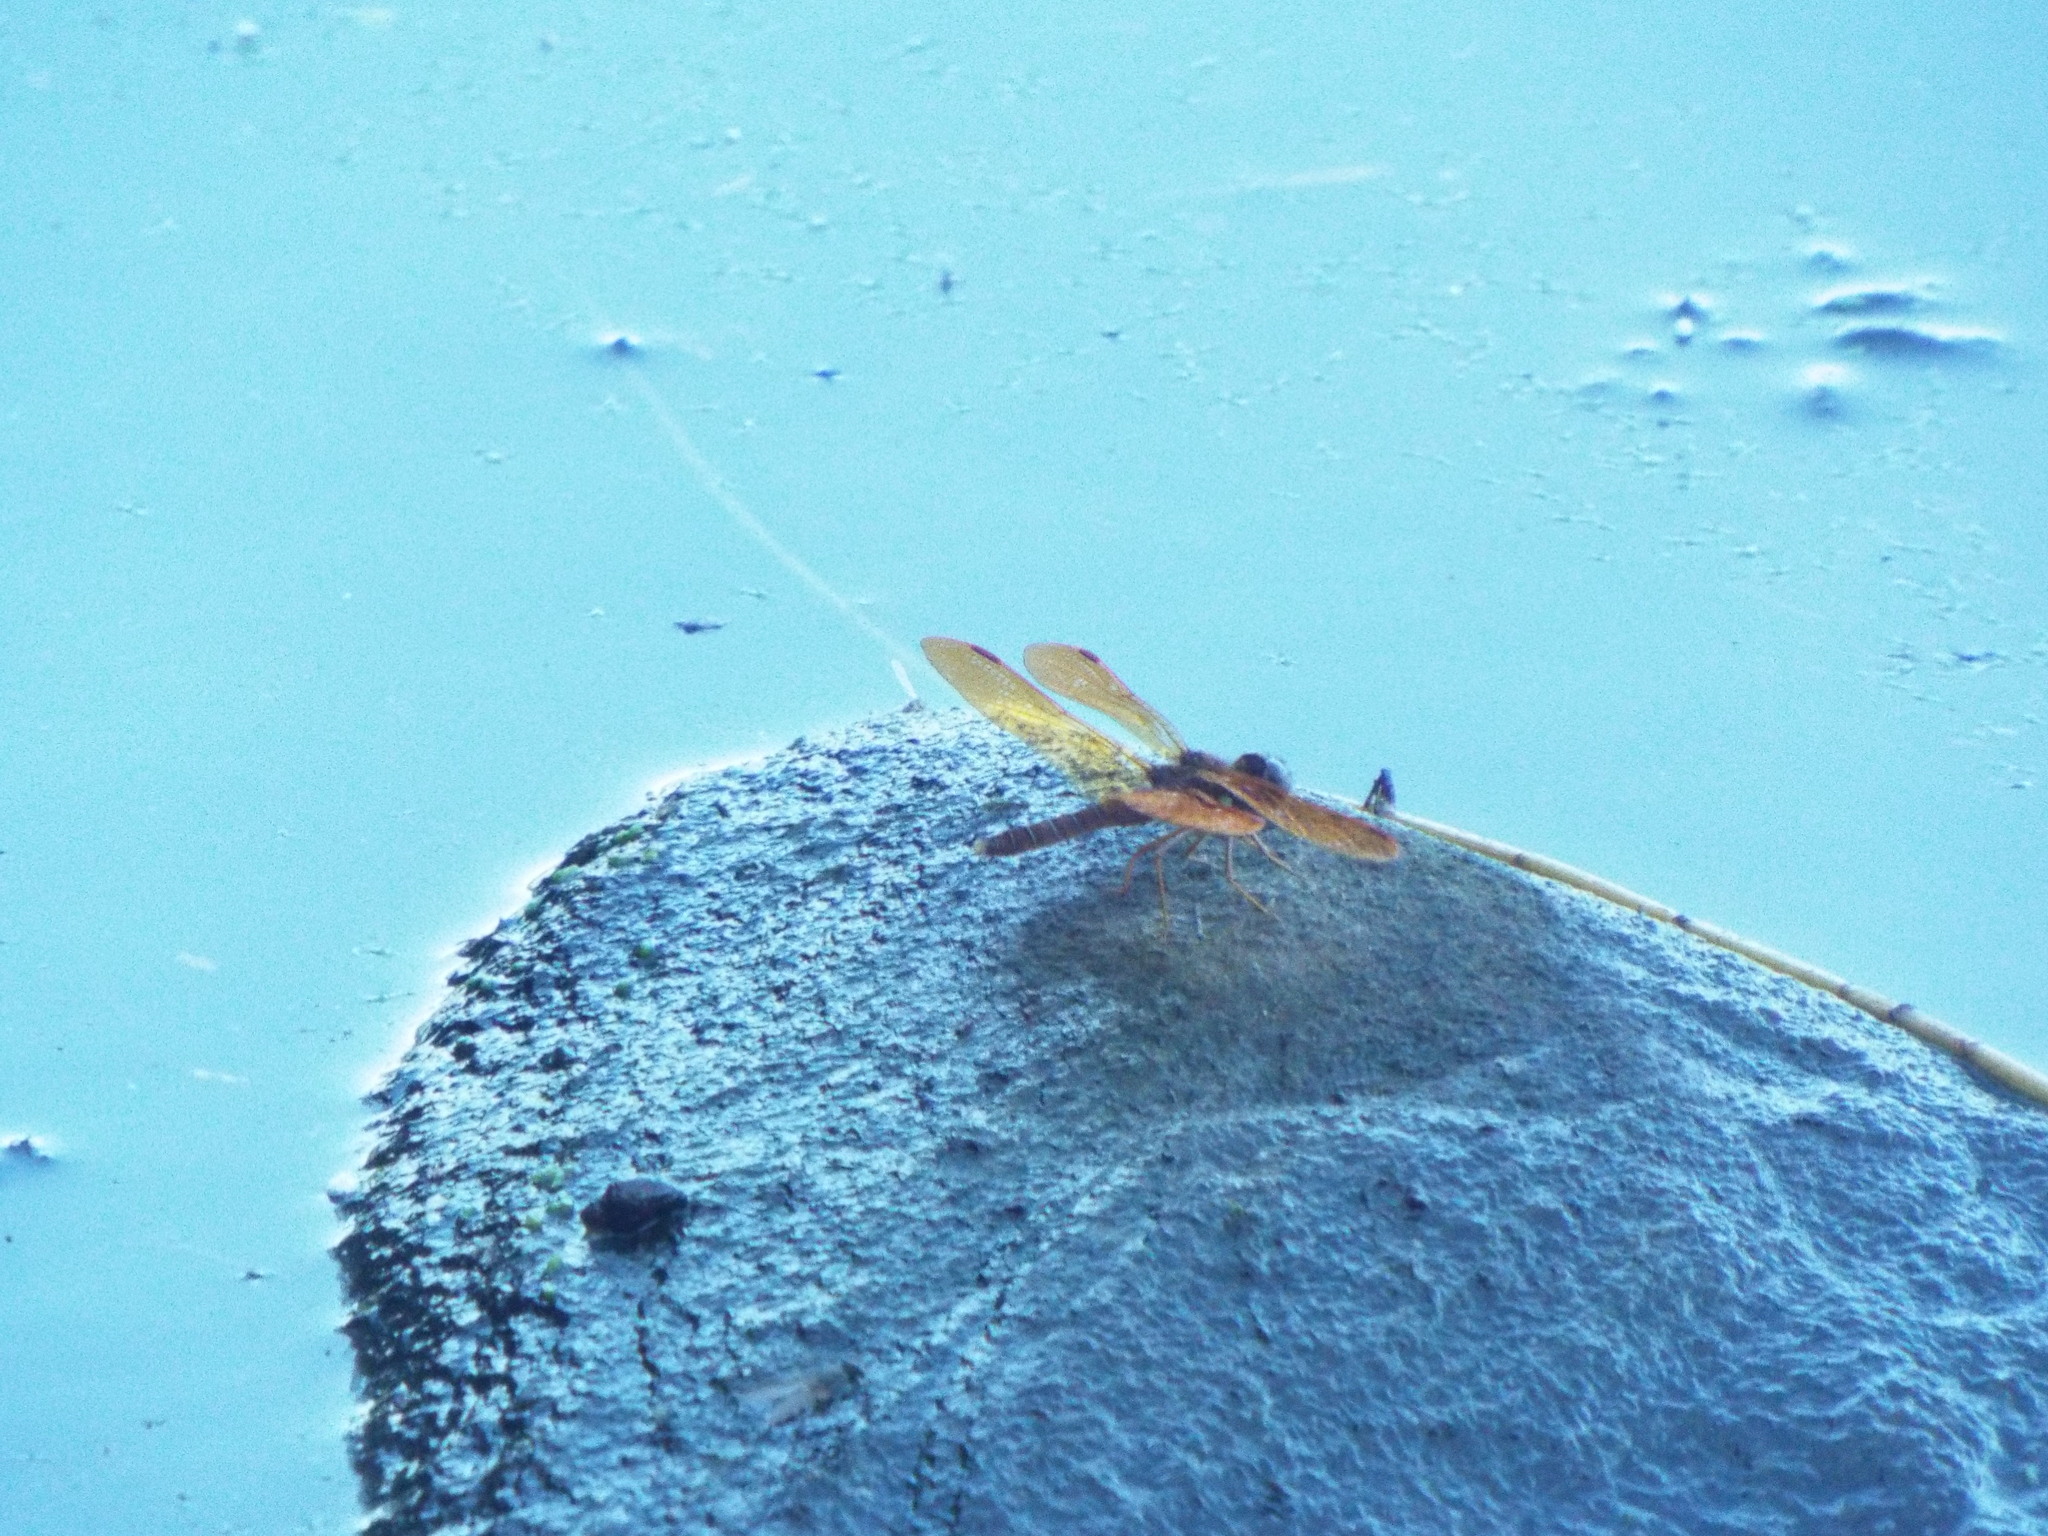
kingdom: Animalia
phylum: Arthropoda
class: Insecta
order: Odonata
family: Libellulidae
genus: Perithemis
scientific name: Perithemis tenera
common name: Eastern amberwing
